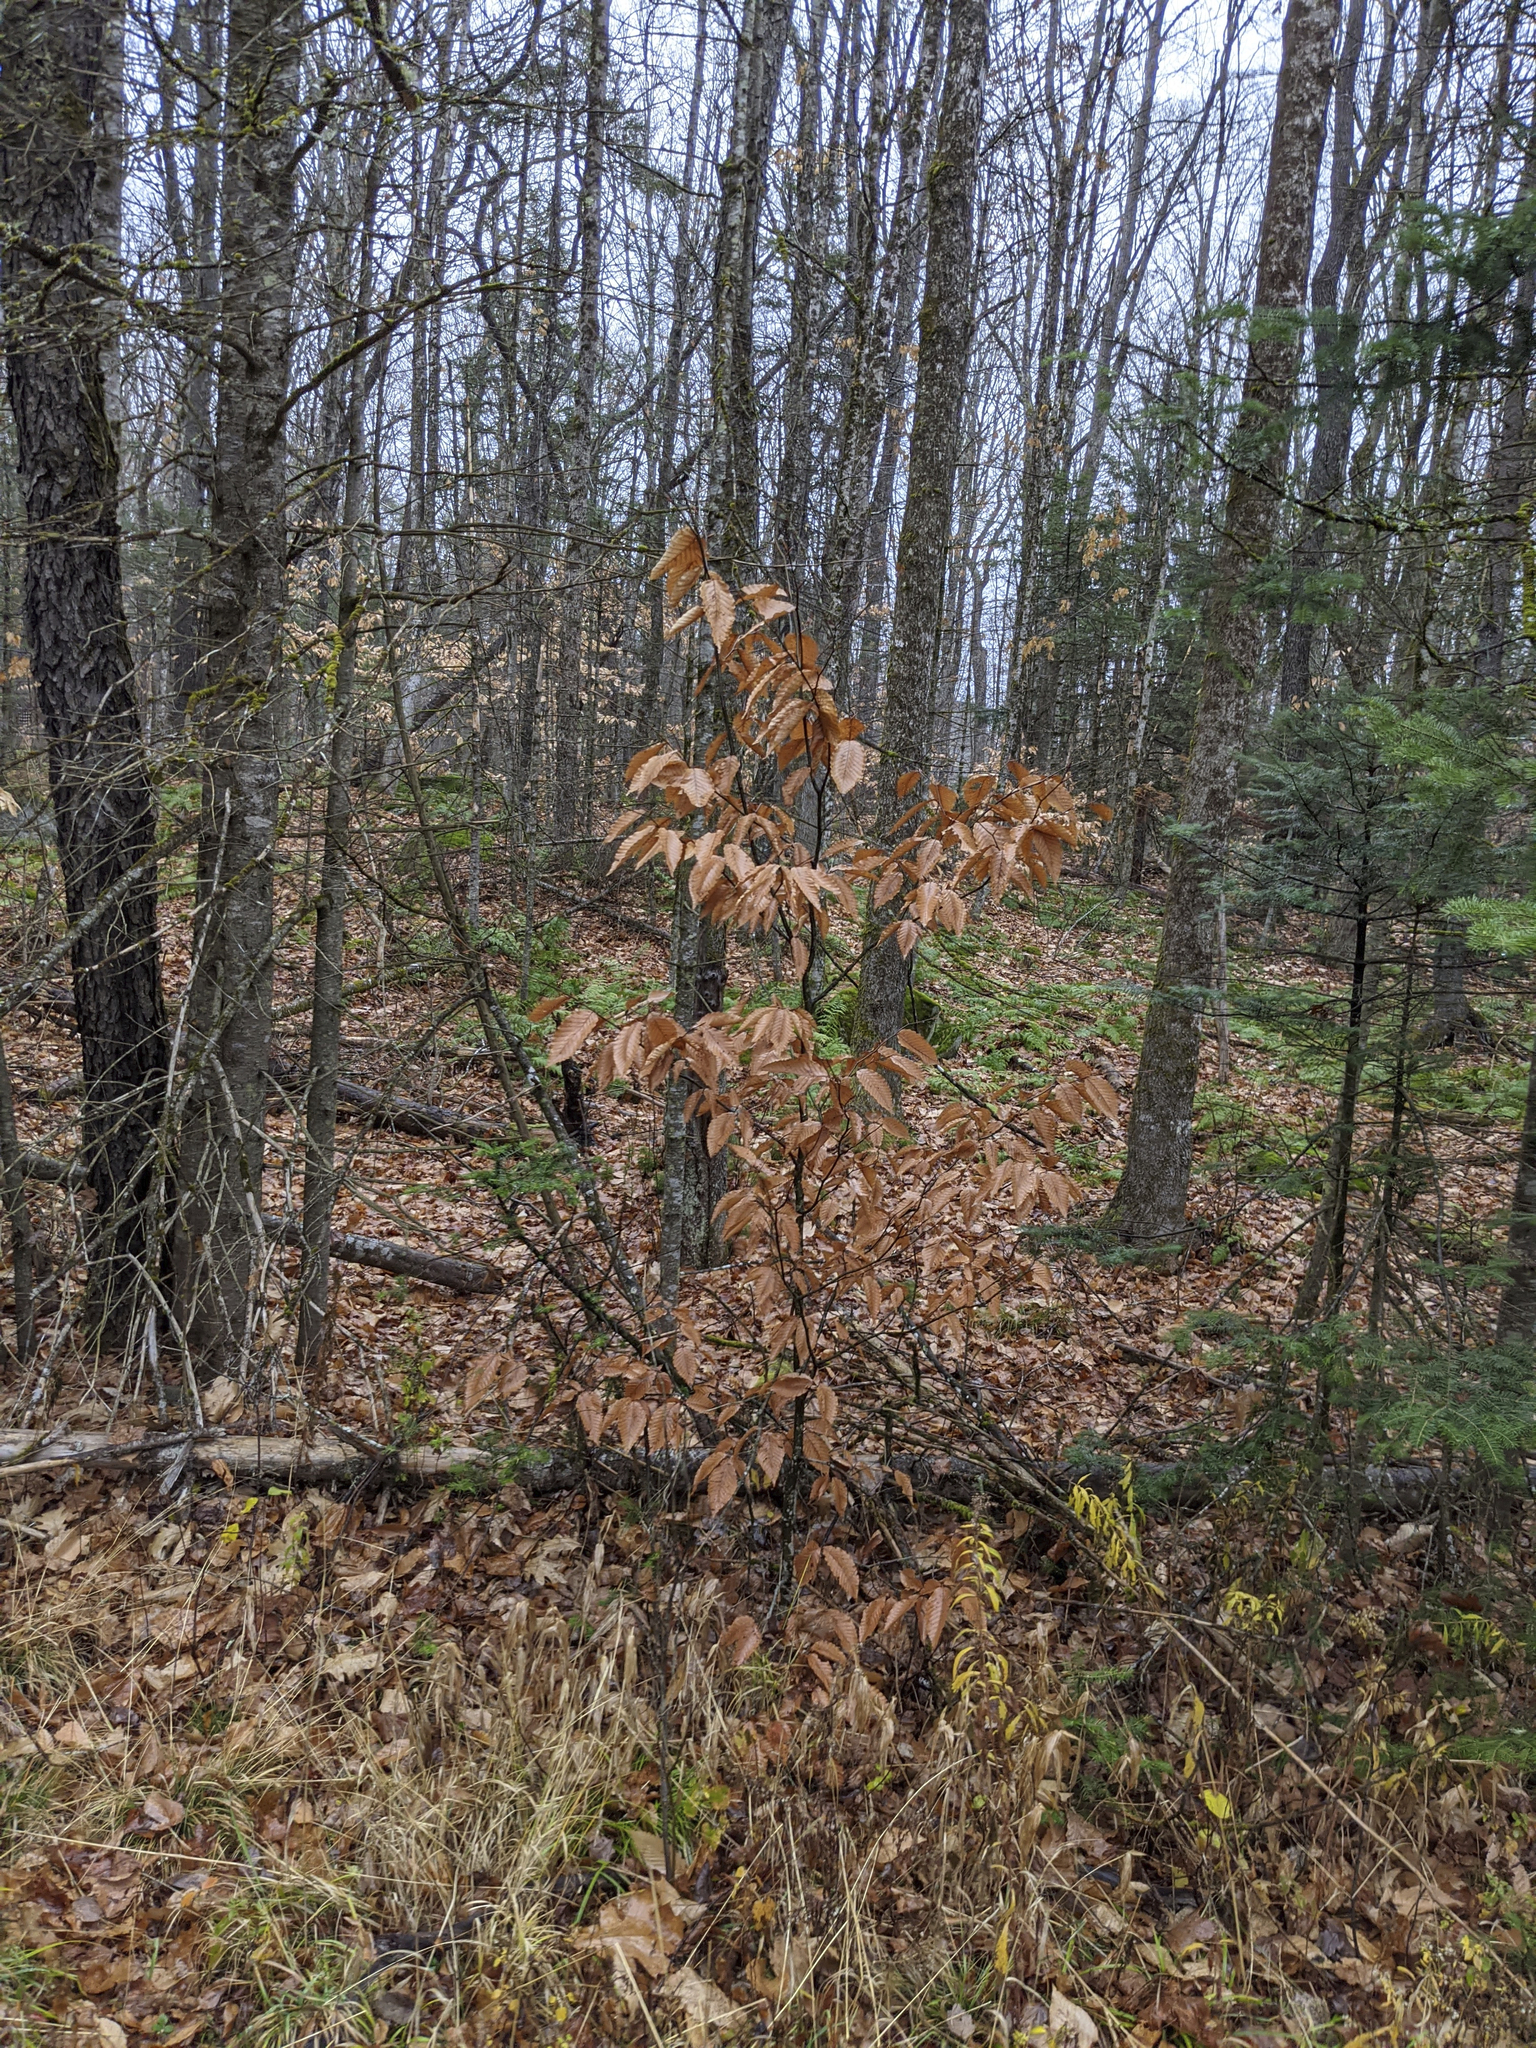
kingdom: Plantae
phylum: Tracheophyta
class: Magnoliopsida
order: Fagales
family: Fagaceae
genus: Fagus
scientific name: Fagus grandifolia
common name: American beech
